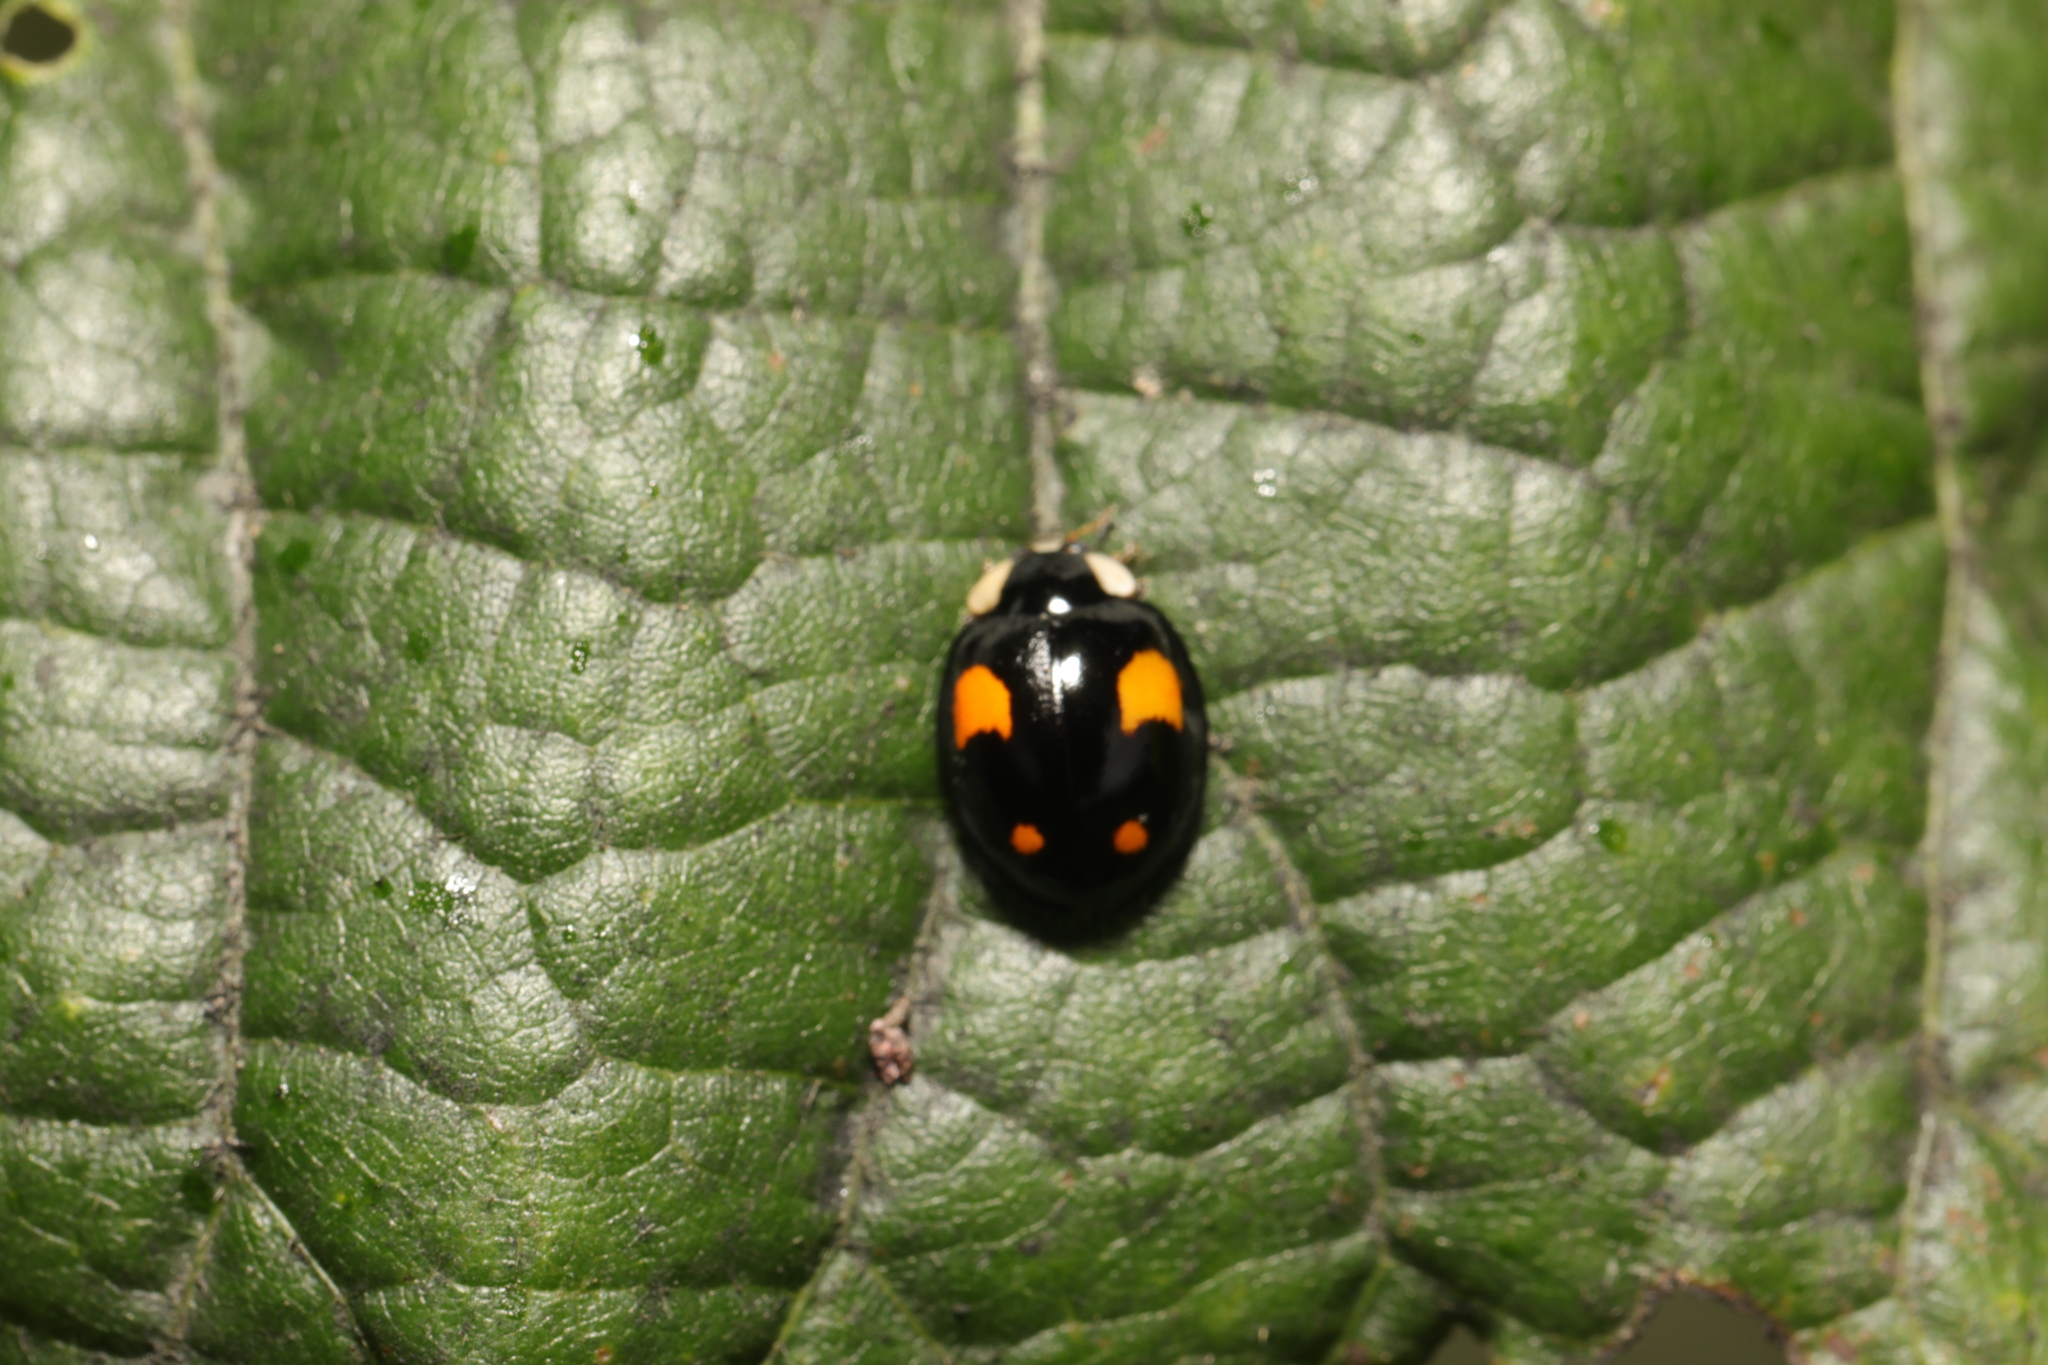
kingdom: Animalia
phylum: Arthropoda
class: Insecta
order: Coleoptera
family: Coccinellidae
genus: Harmonia
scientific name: Harmonia axyridis
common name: Harlequin ladybird
